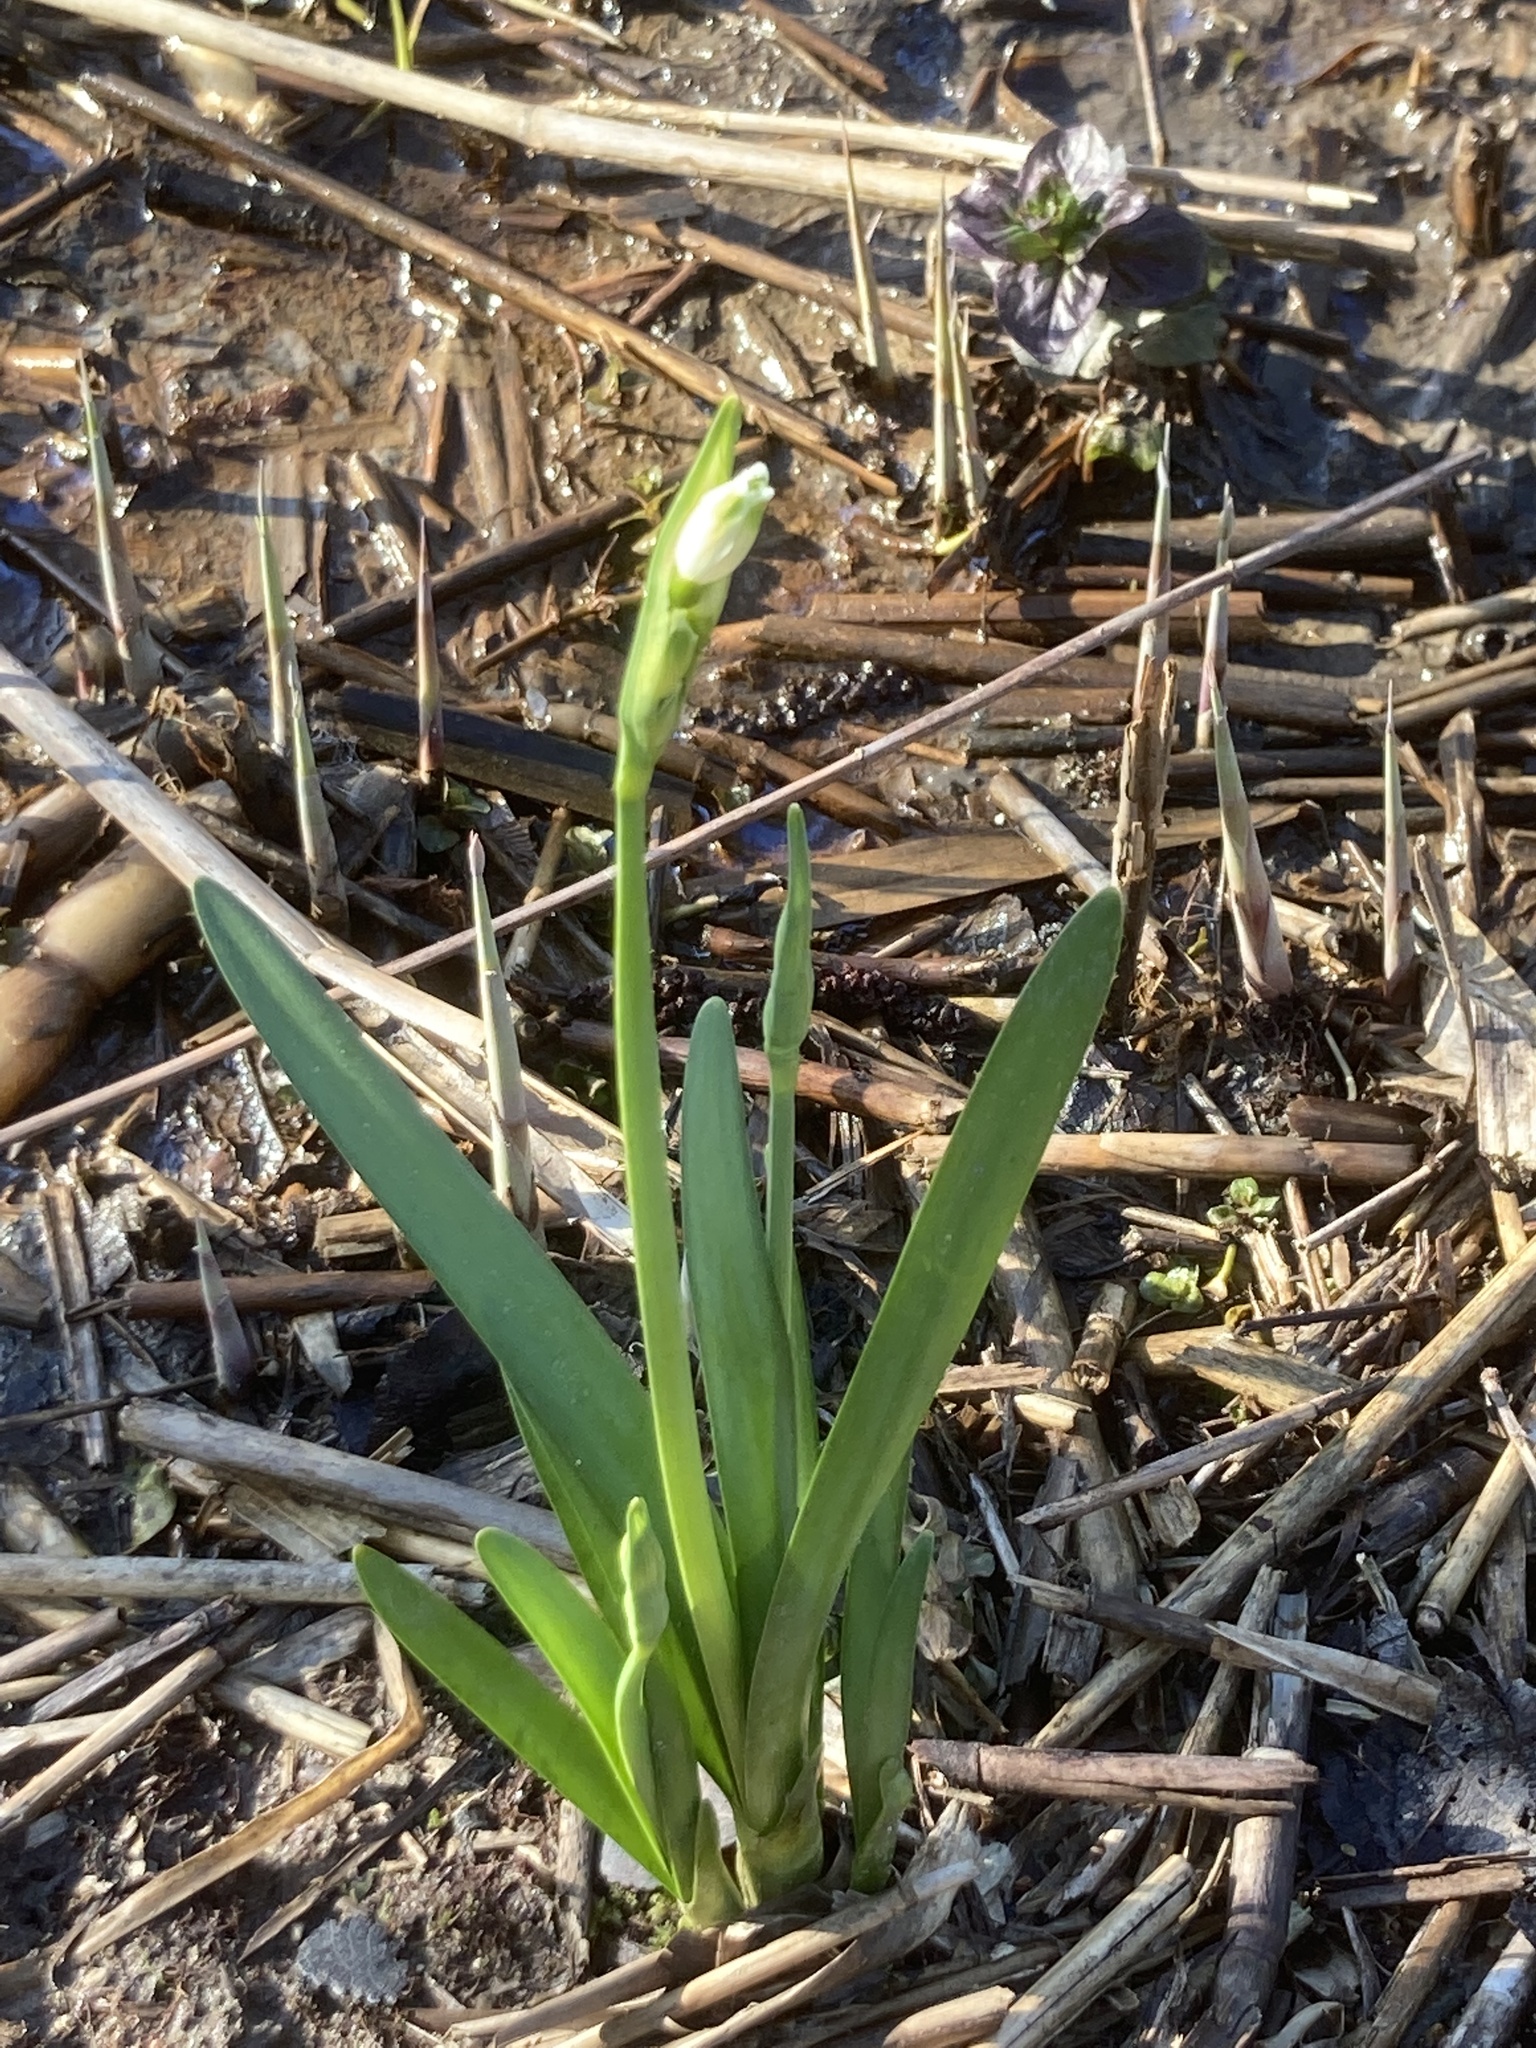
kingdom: Plantae
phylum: Tracheophyta
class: Liliopsida
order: Asparagales
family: Amaryllidaceae
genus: Leucojum
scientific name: Leucojum aestivum
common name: Summer snowflake
